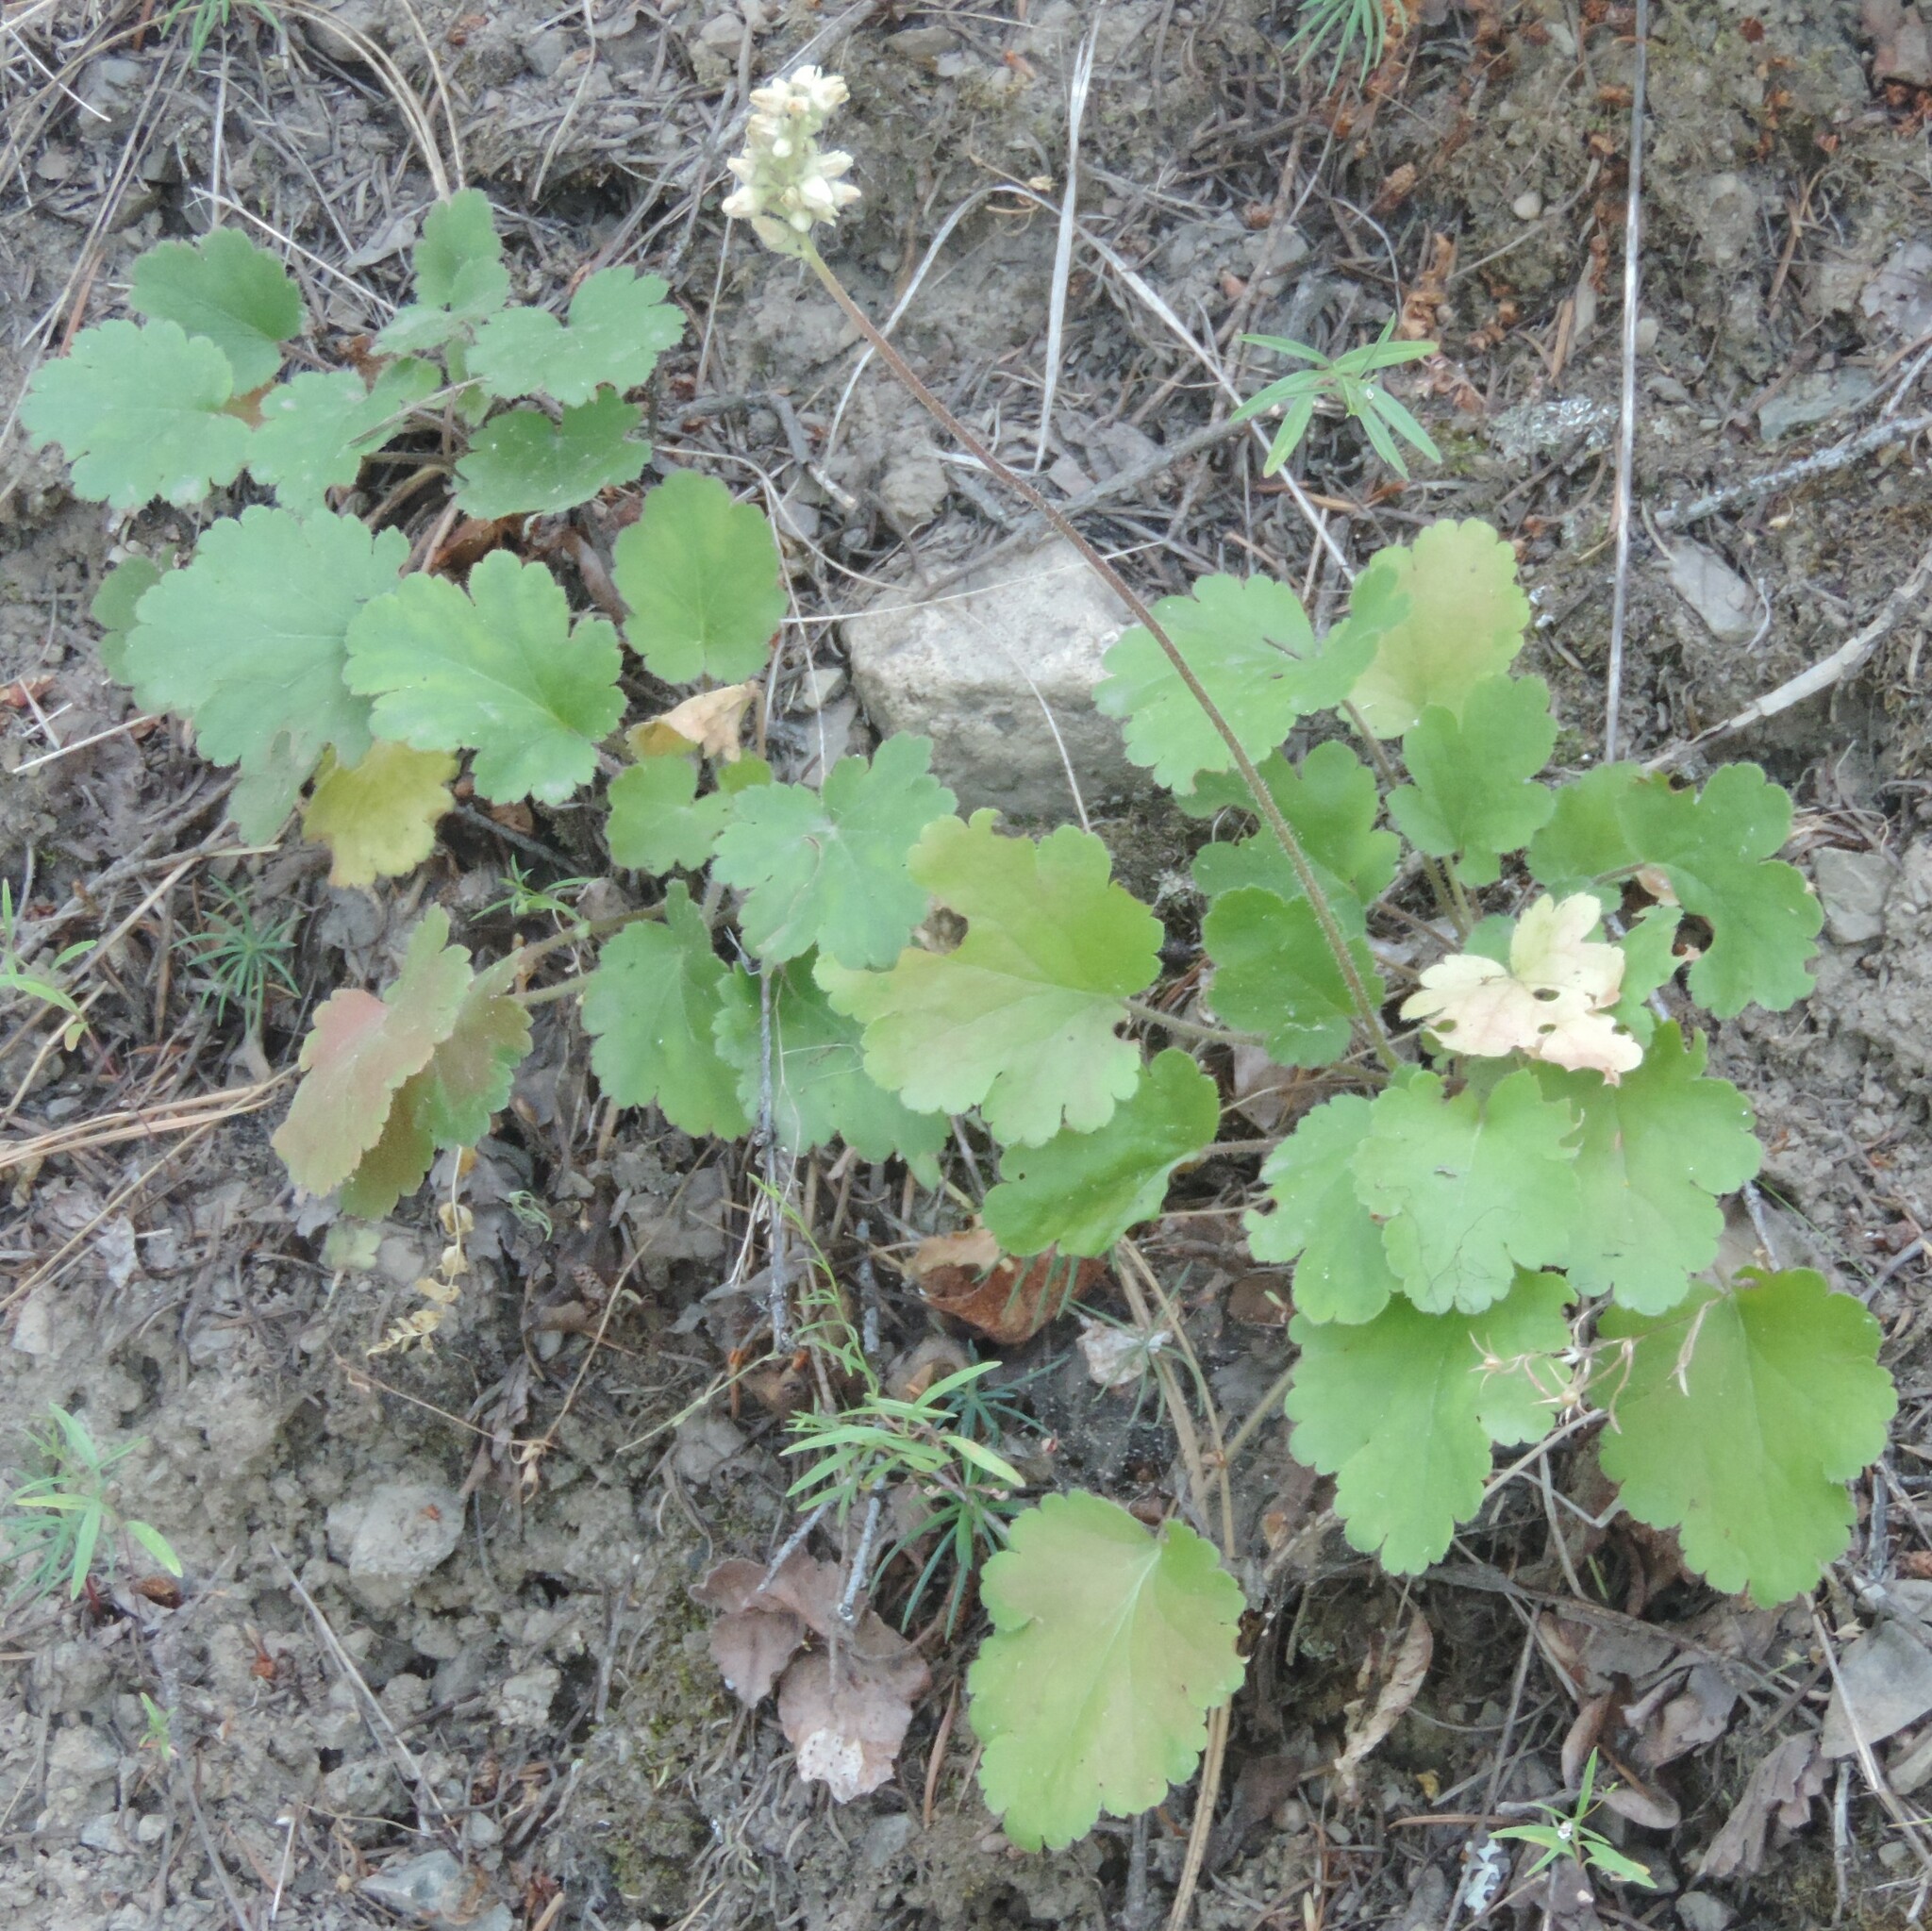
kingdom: Plantae
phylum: Tracheophyta
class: Magnoliopsida
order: Saxifragales
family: Saxifragaceae
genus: Heuchera
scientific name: Heuchera cylindrica
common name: Mat alumroot
